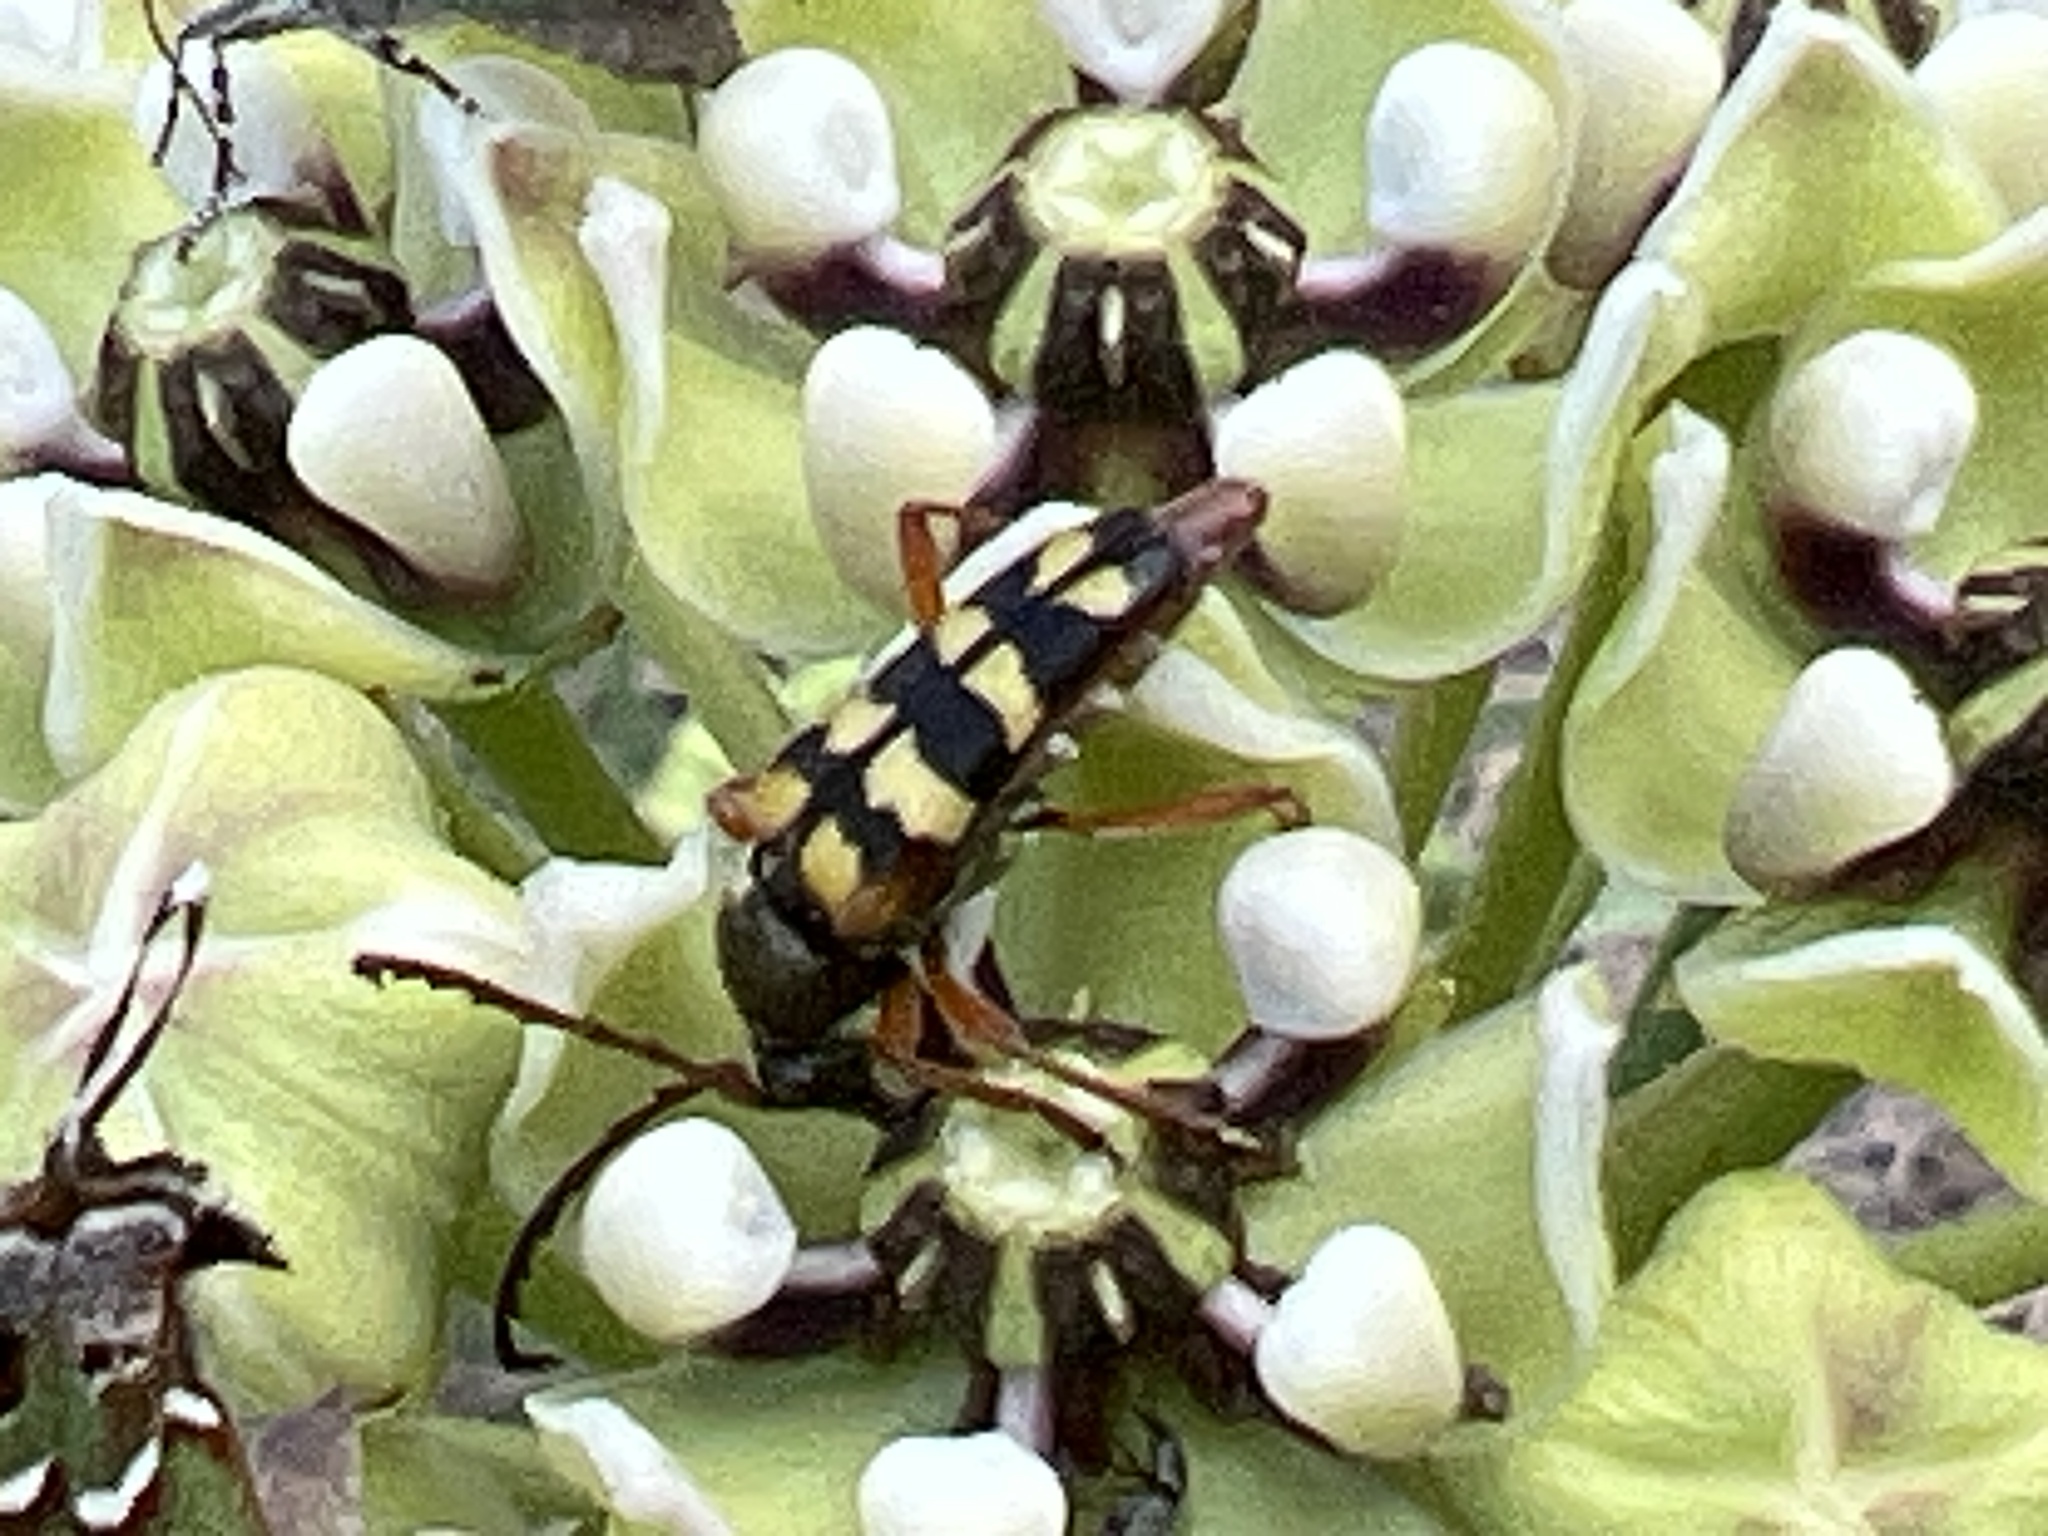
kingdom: Animalia
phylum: Arthropoda
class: Insecta
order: Coleoptera
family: Cerambycidae
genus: Typocerus
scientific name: Typocerus sinuatus
